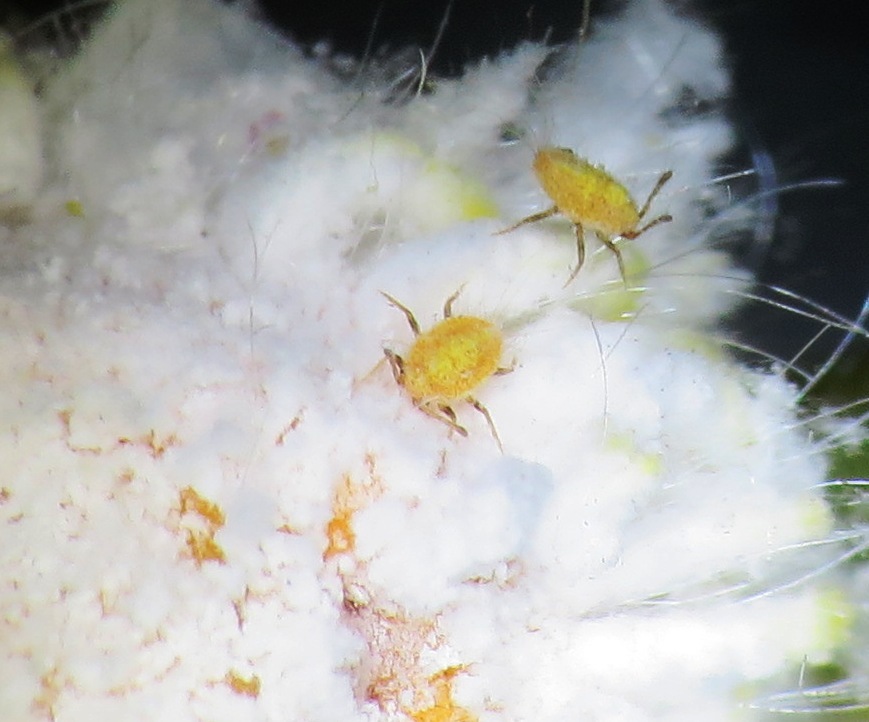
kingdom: Animalia
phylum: Arthropoda
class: Insecta
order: Hemiptera
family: Margarodidae
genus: Icerya
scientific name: Icerya seychellarum
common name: Iceplant scale
